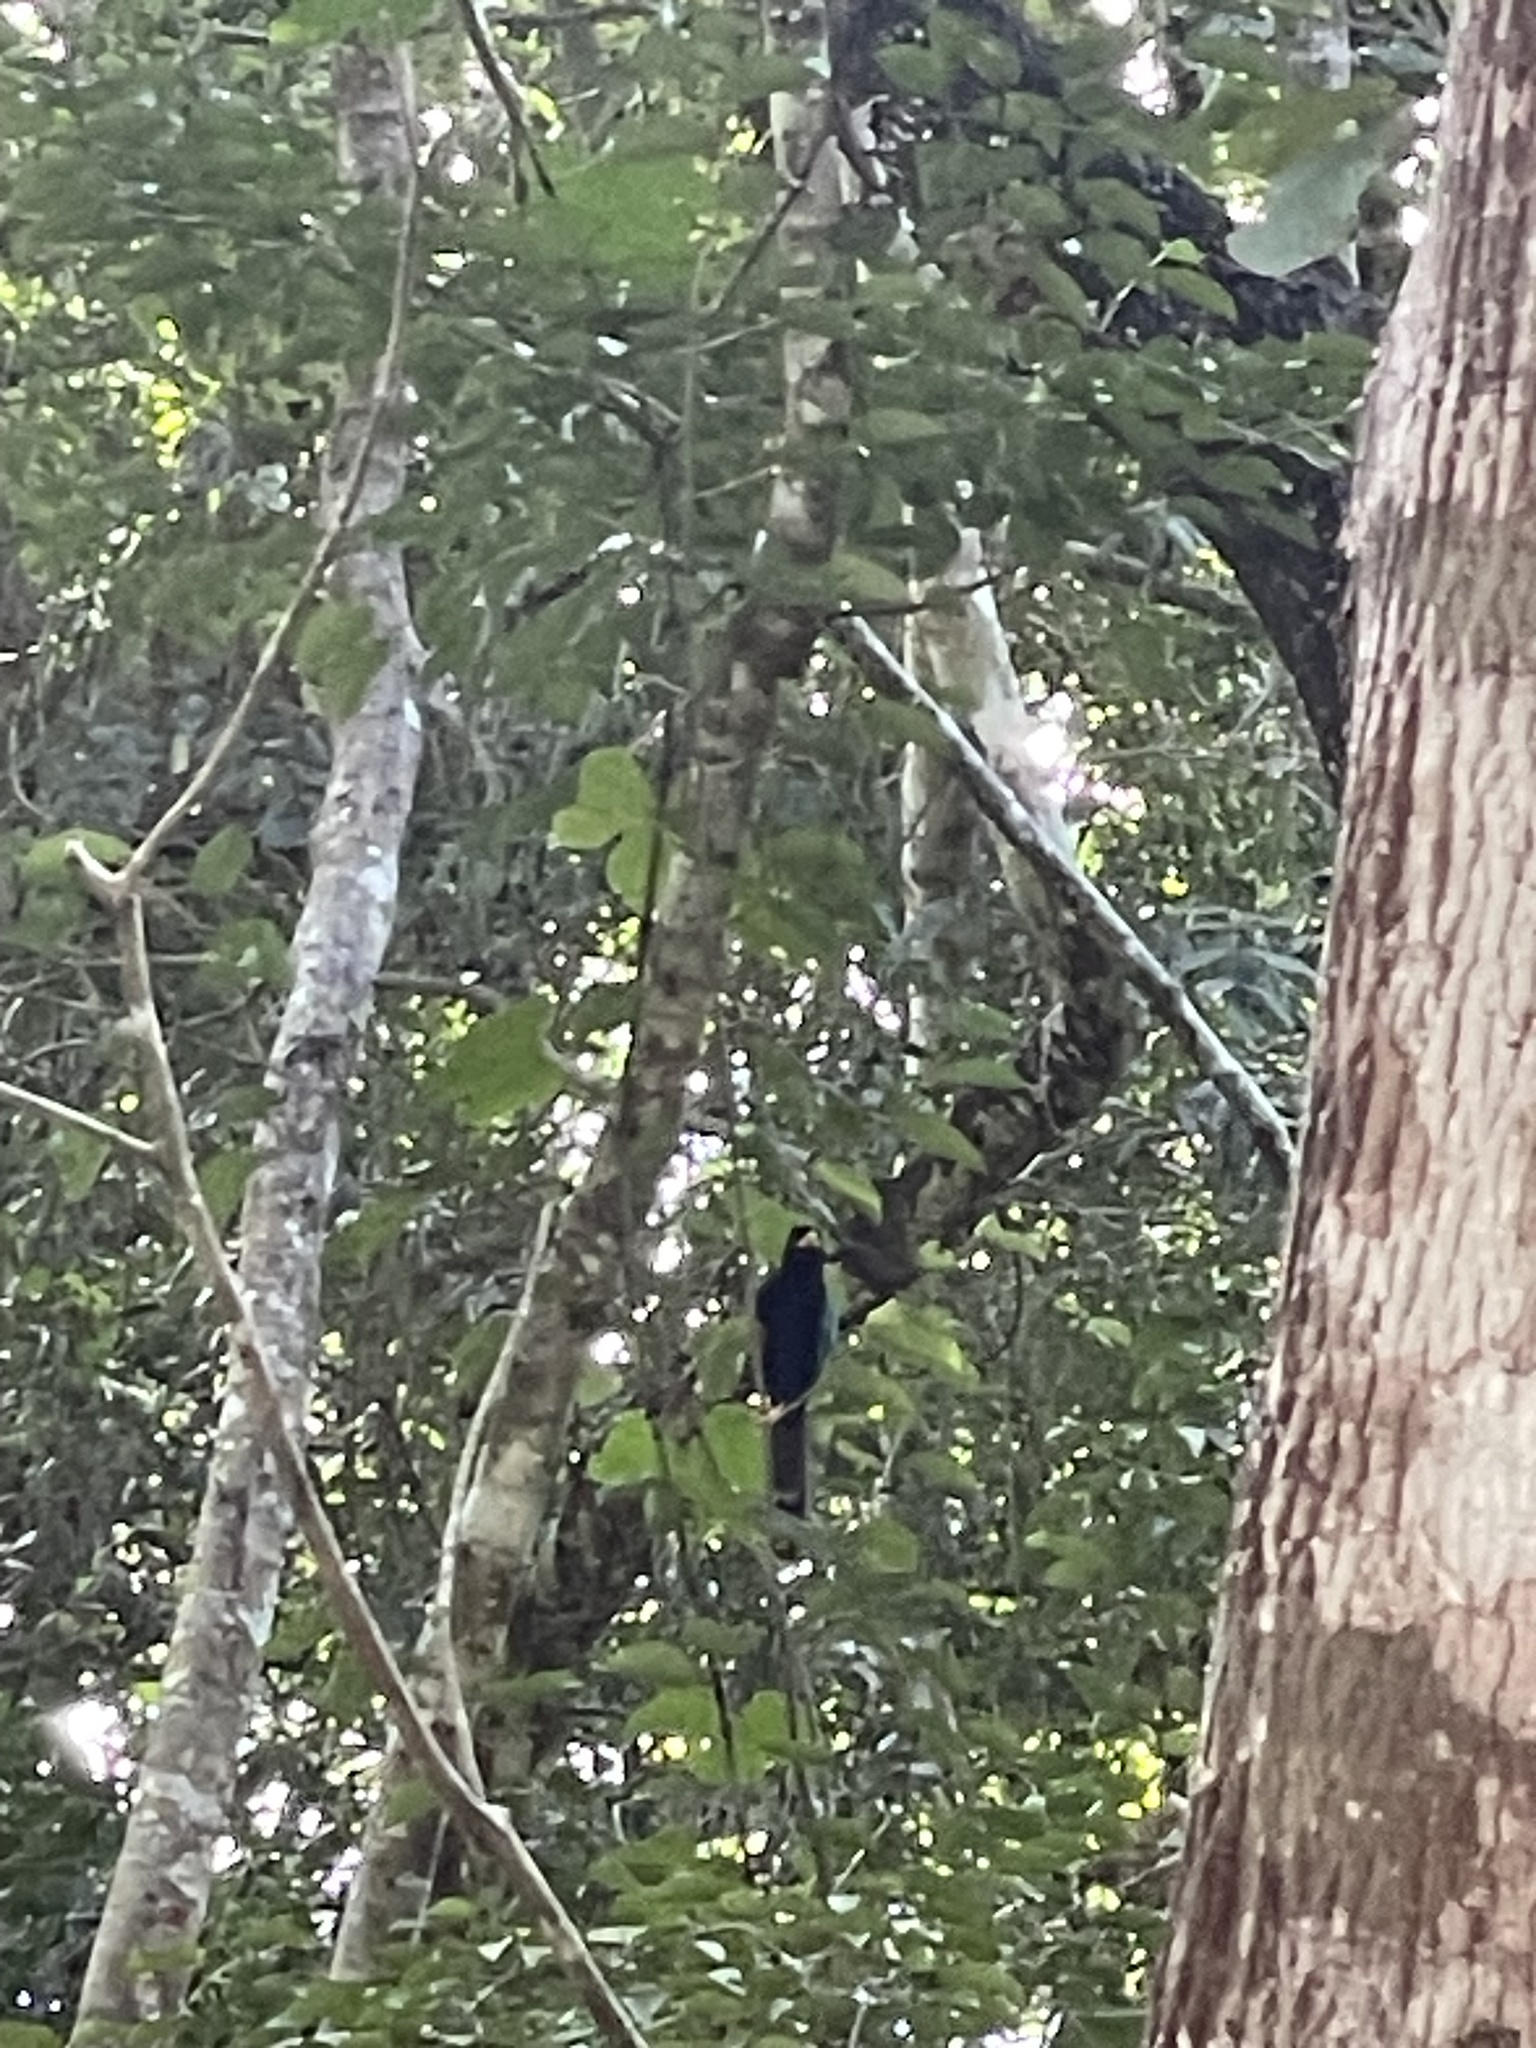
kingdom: Animalia
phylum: Chordata
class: Aves
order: Passeriformes
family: Corvidae
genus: Cyanocorax
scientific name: Cyanocorax yucatanicus
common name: Yucatan jay
